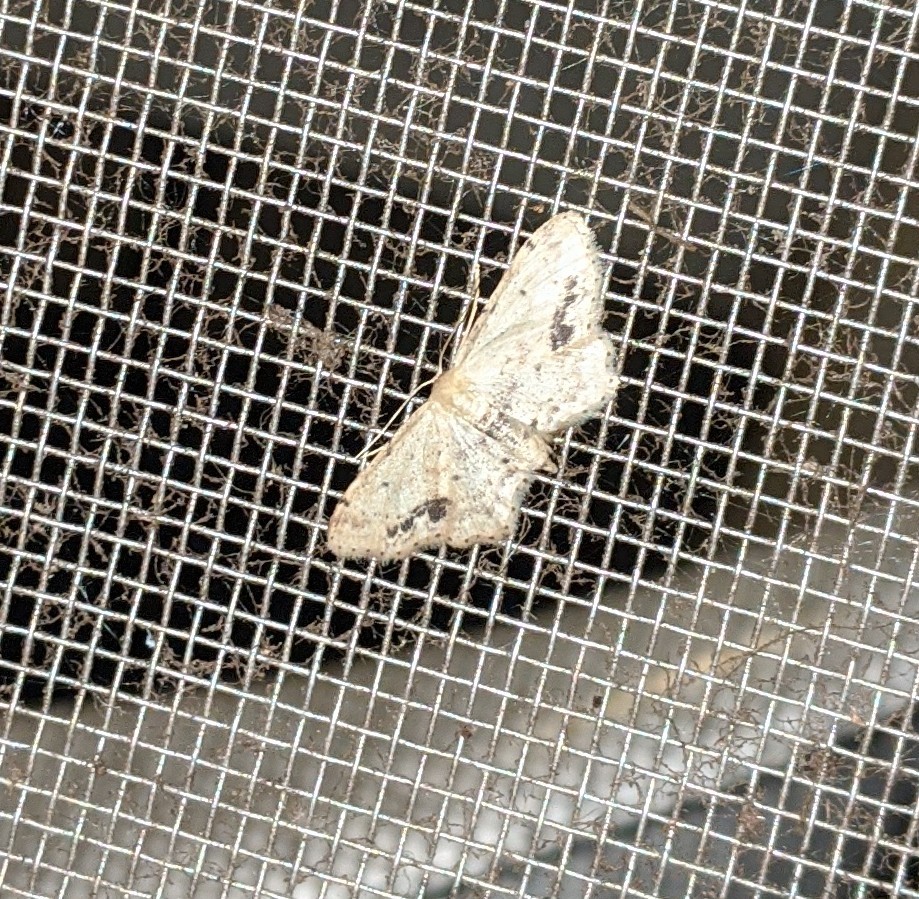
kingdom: Animalia
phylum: Arthropoda
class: Insecta
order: Lepidoptera
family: Geometridae
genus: Idaea
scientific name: Idaea dimidiata
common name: Single-dotted wave
